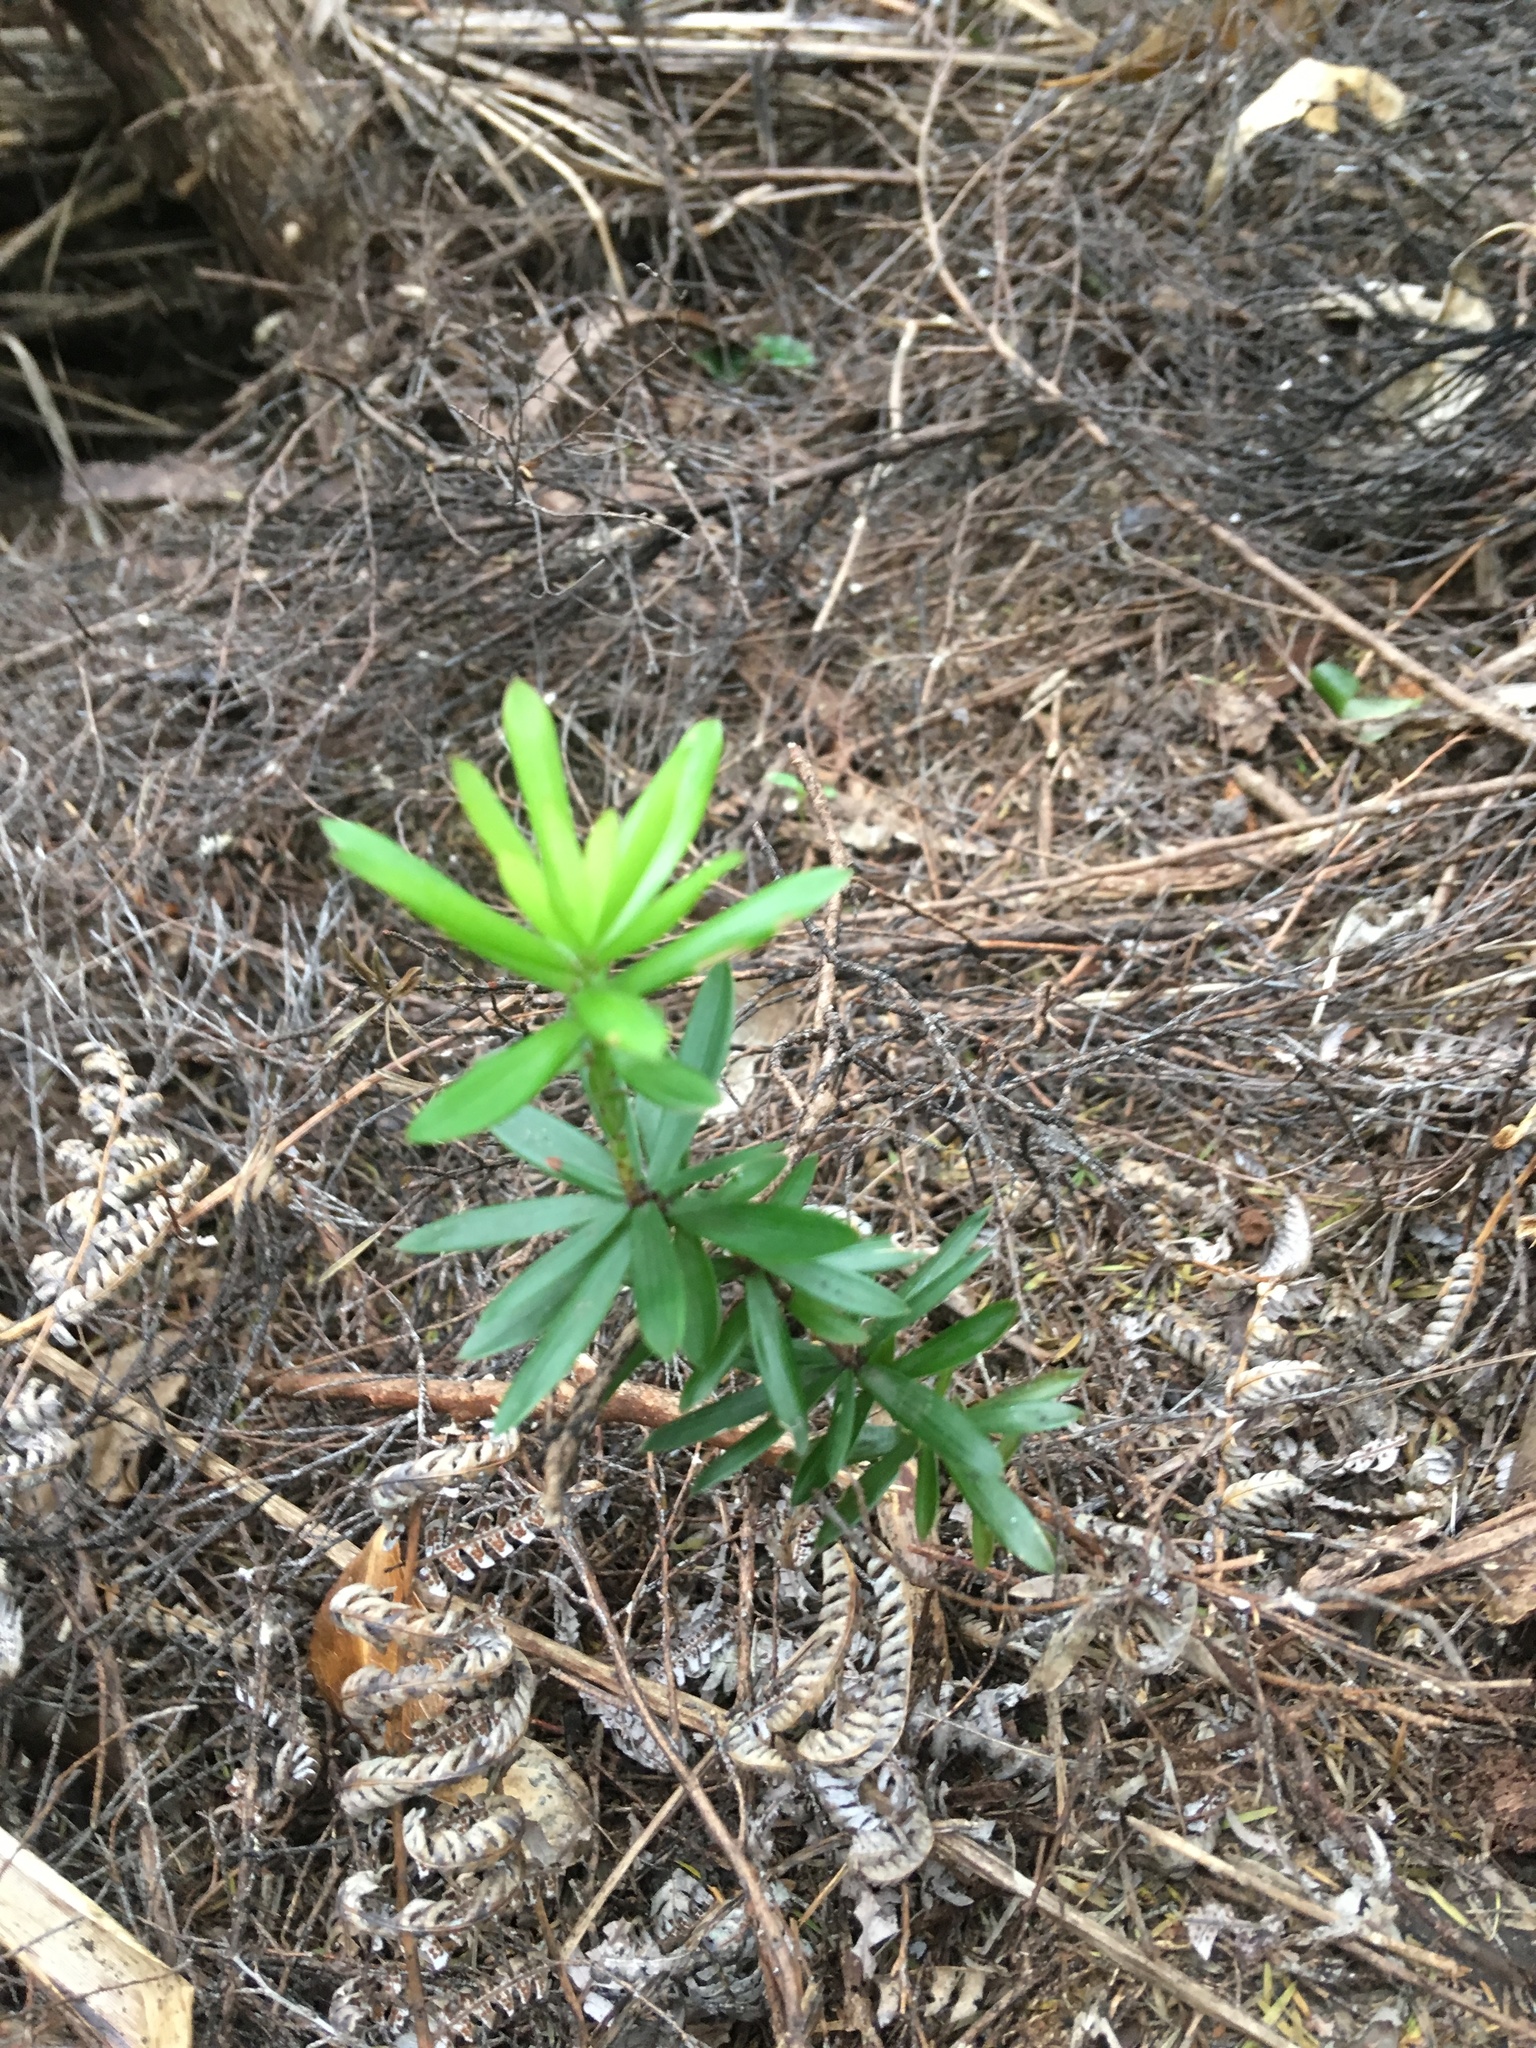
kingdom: Plantae
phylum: Tracheophyta
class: Magnoliopsida
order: Ericales
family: Ericaceae
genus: Leucopogon
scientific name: Leucopogon fasciculatus
